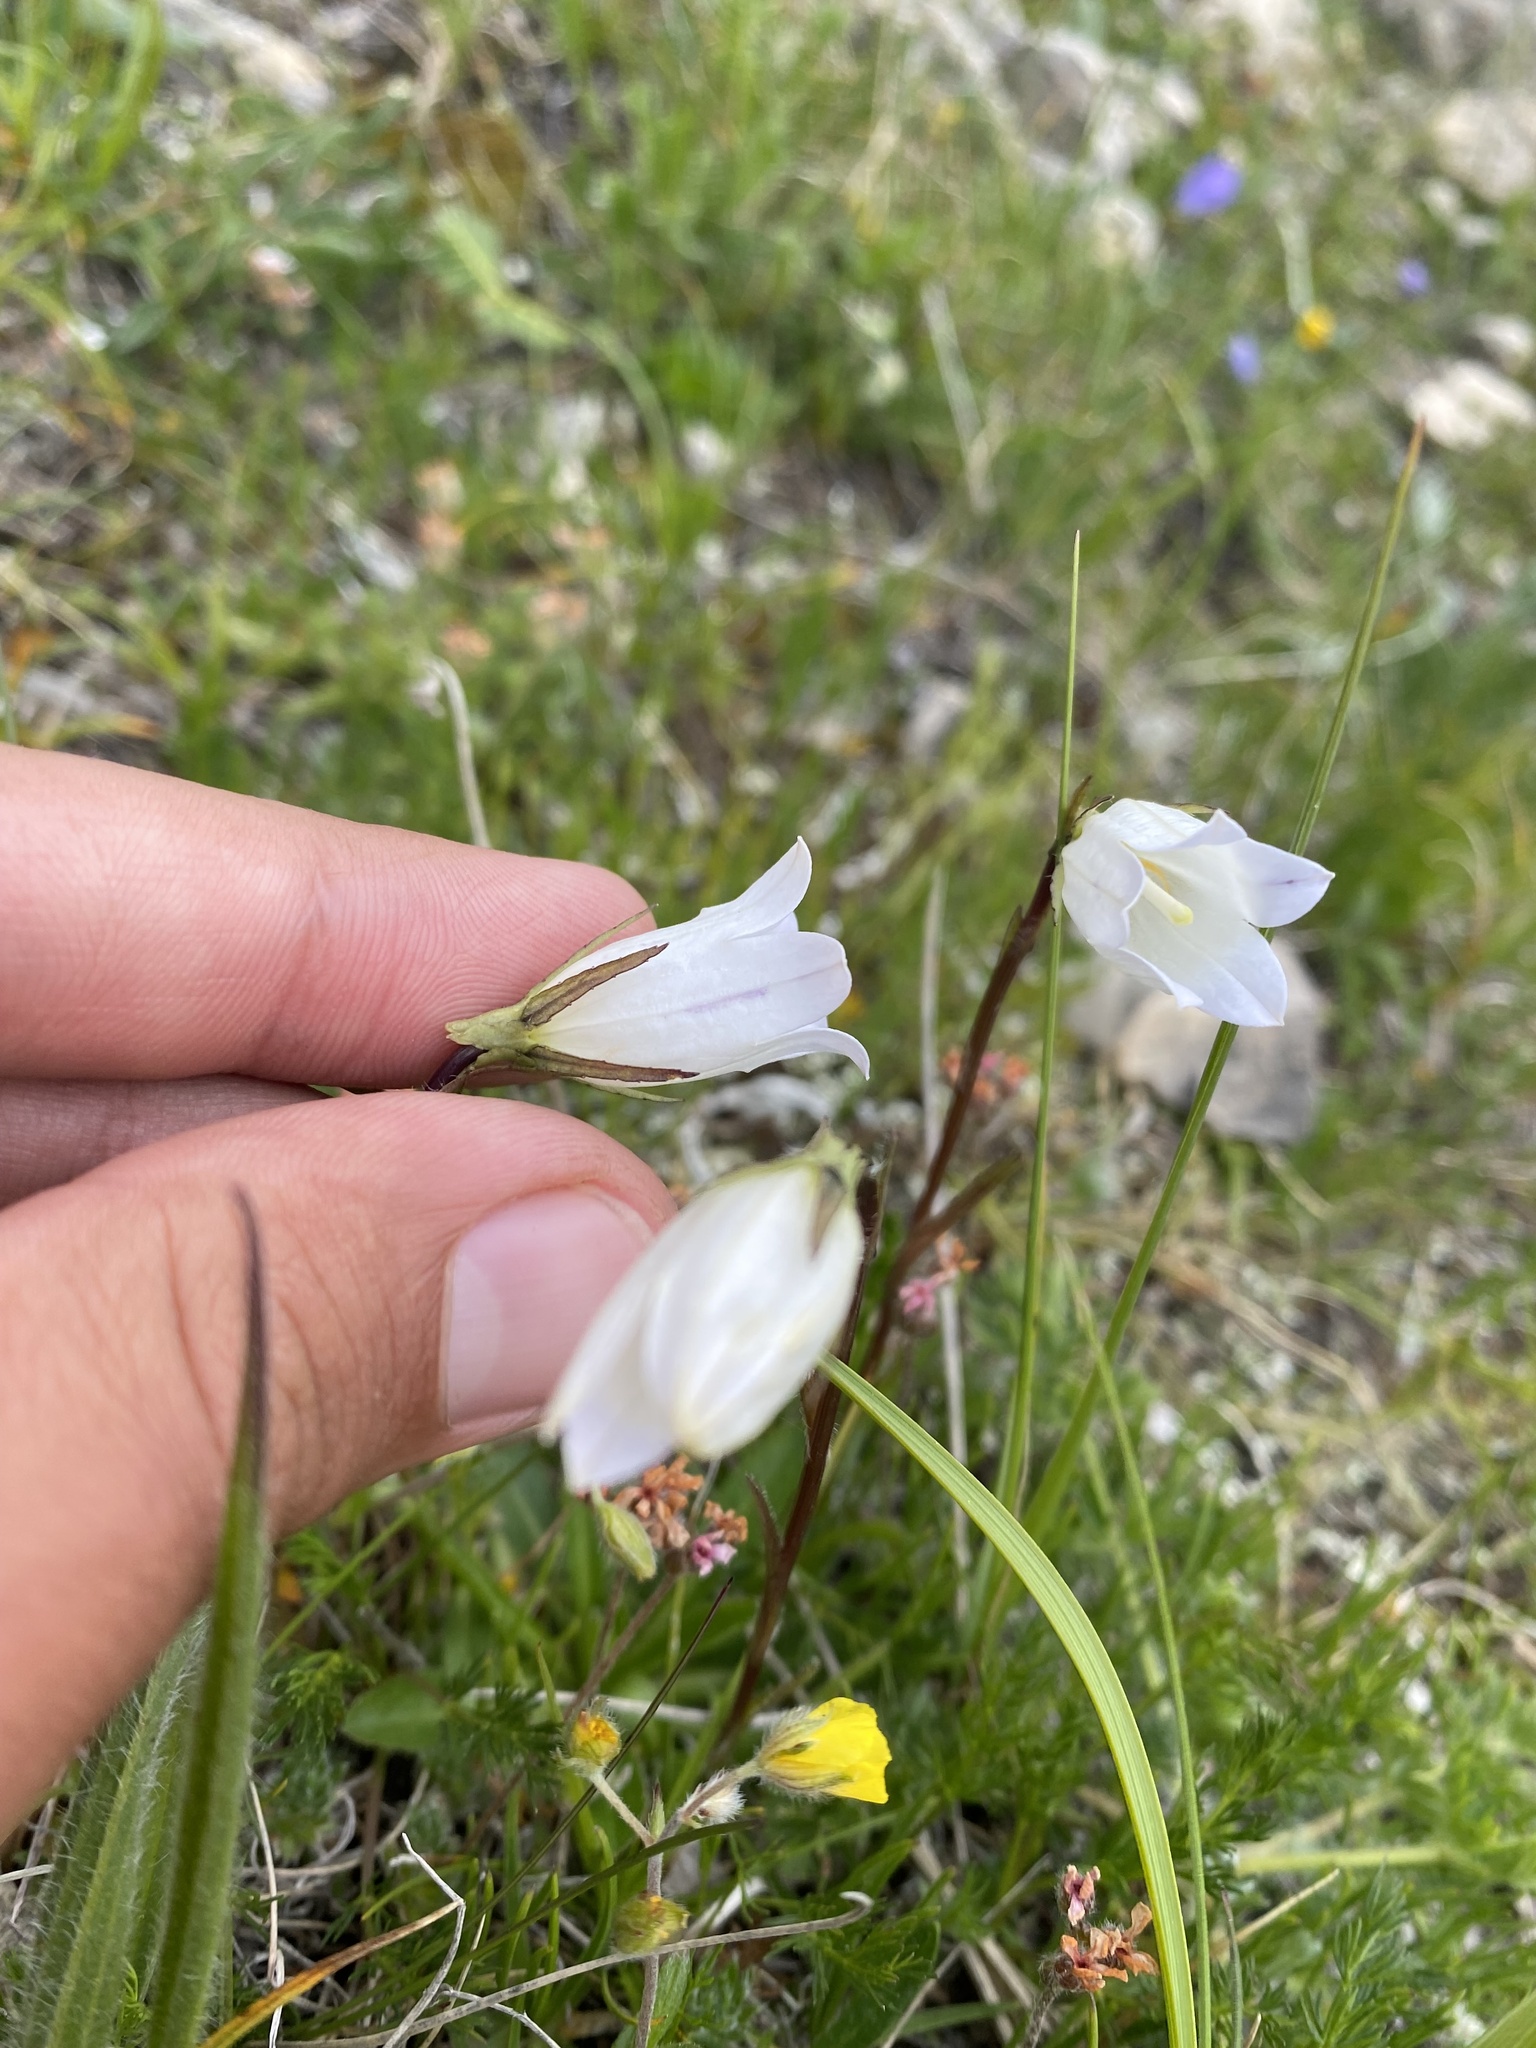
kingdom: Plantae
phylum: Tracheophyta
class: Magnoliopsida
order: Asterales
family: Campanulaceae
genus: Campanula
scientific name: Campanula ciliata
